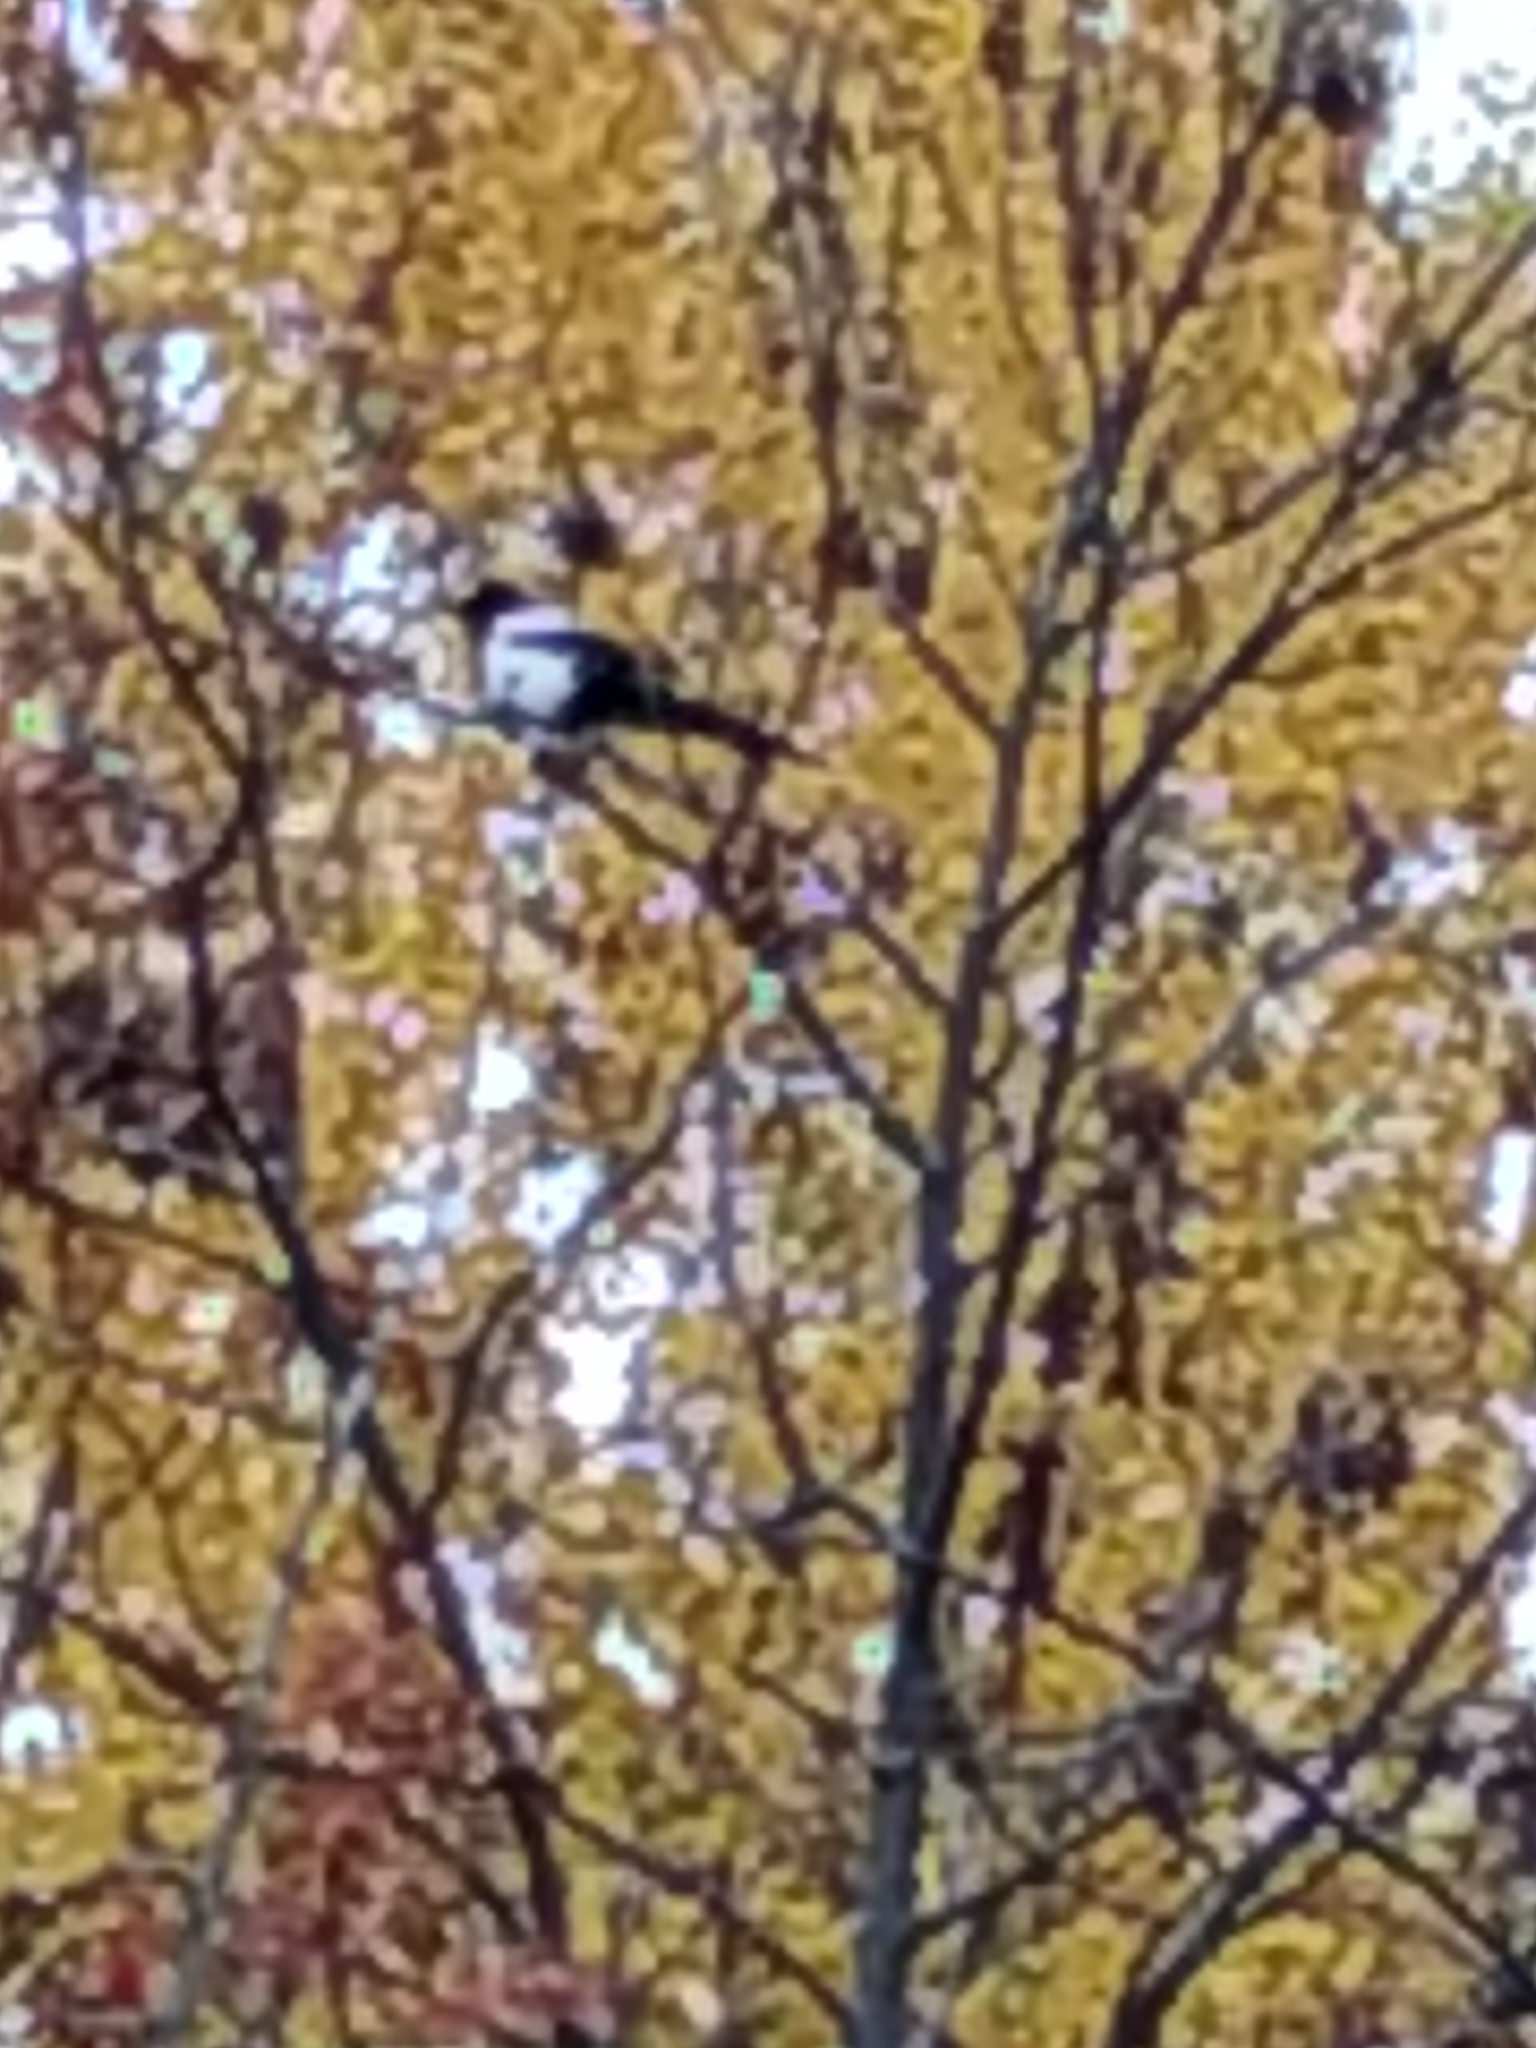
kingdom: Animalia
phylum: Chordata
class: Aves
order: Passeriformes
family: Corvidae
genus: Pica
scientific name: Pica pica
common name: Eurasian magpie
